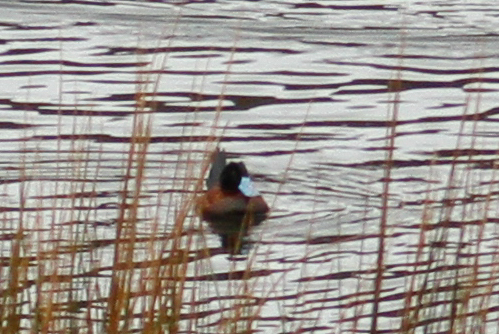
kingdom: Animalia
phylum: Chordata
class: Aves
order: Anseriformes
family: Anatidae
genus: Oxyura
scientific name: Oxyura ferruginea
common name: Andean duck
